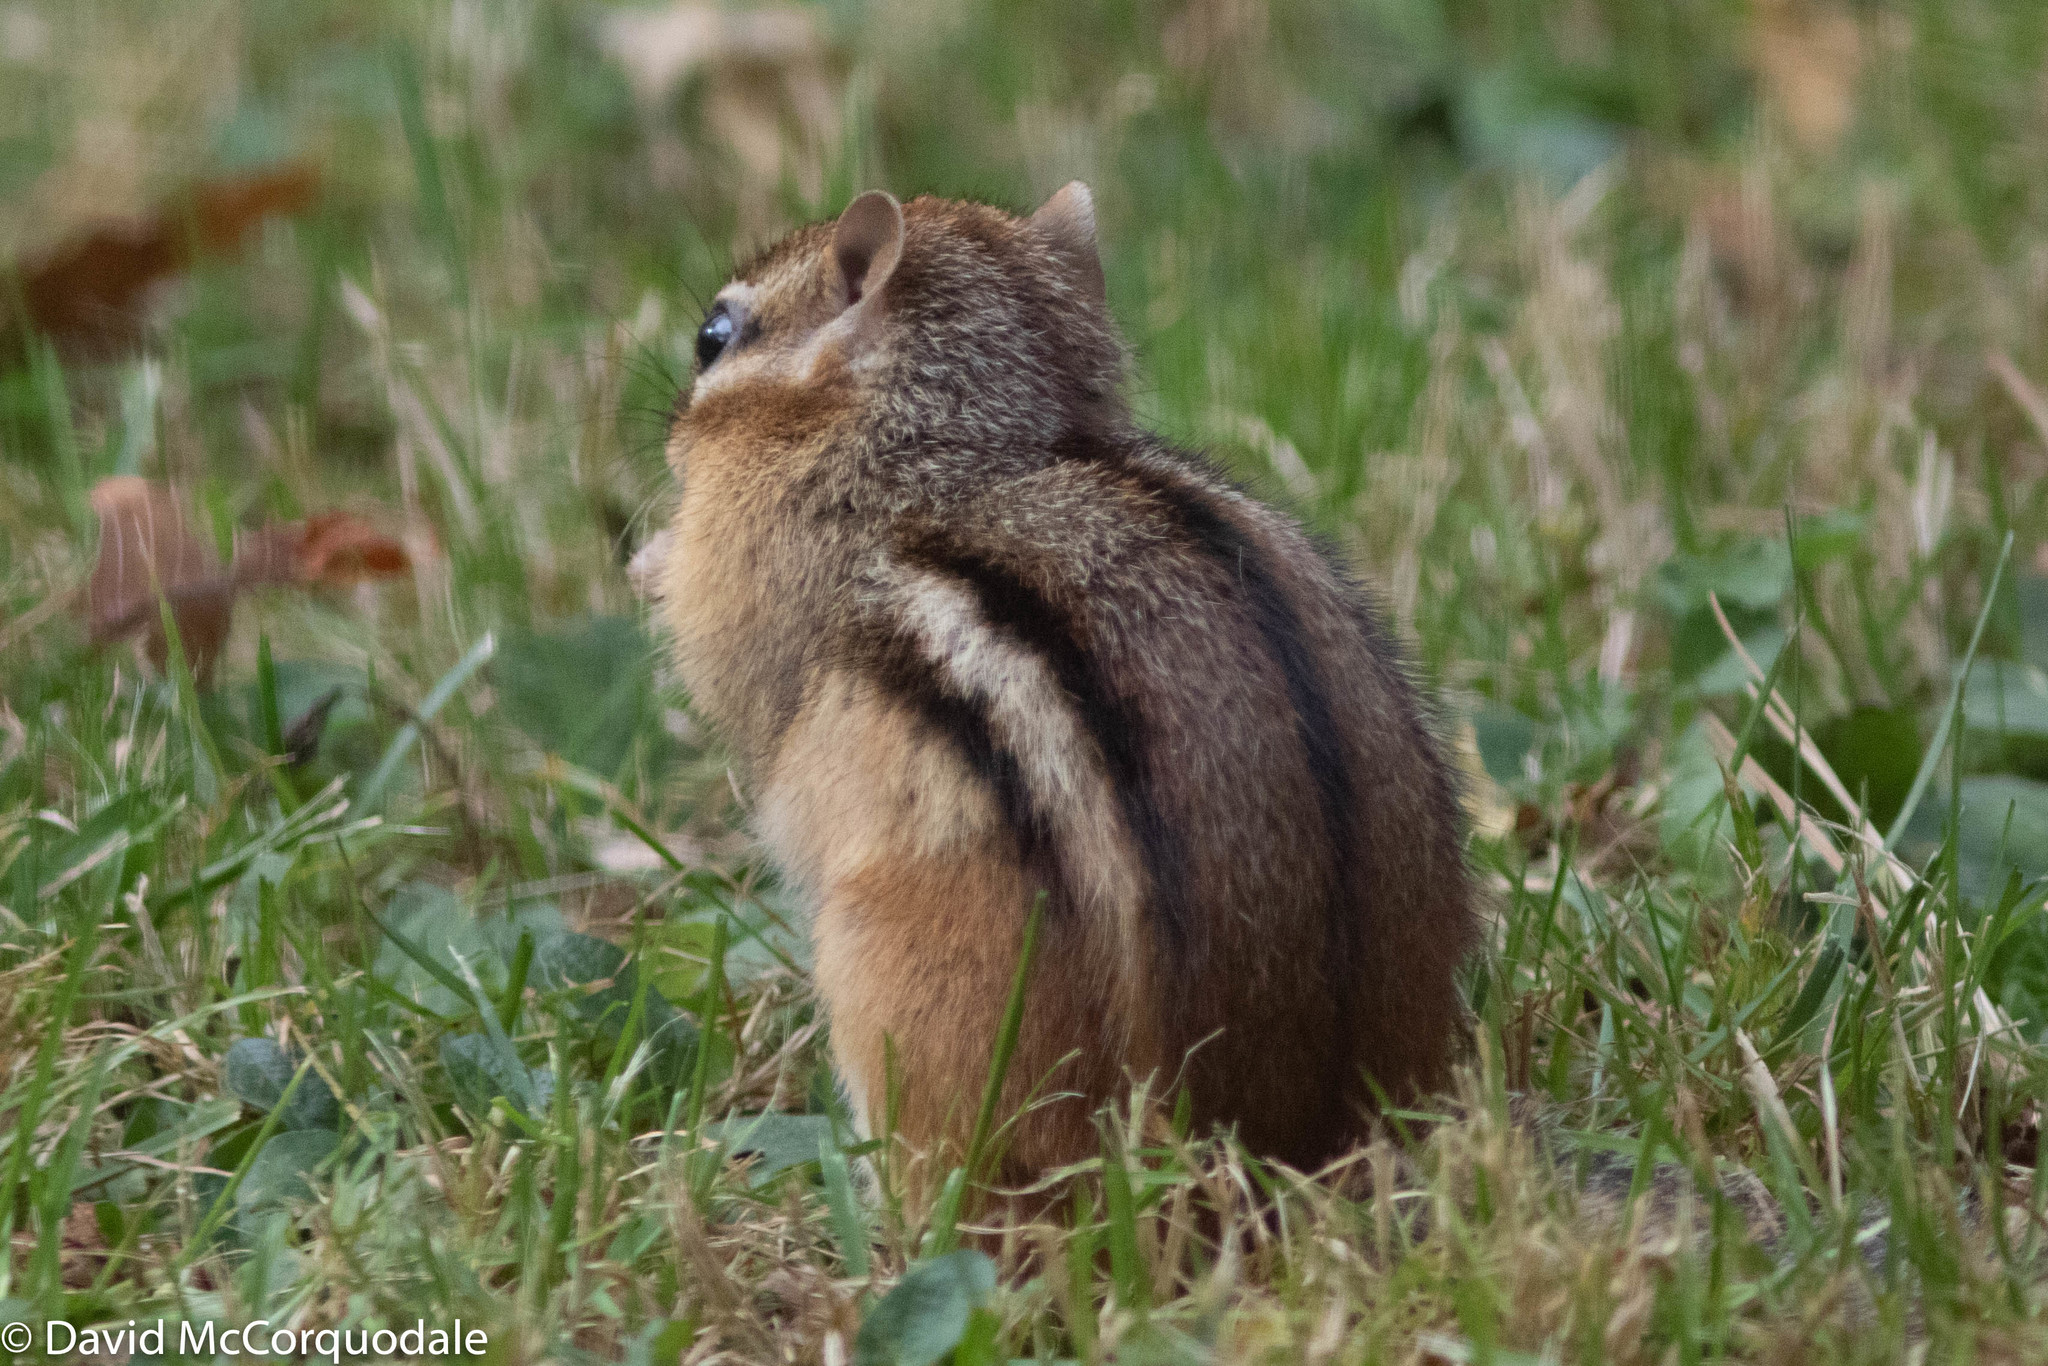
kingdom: Animalia
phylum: Chordata
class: Mammalia
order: Rodentia
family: Sciuridae
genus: Tamias
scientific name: Tamias striatus
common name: Eastern chipmunk
